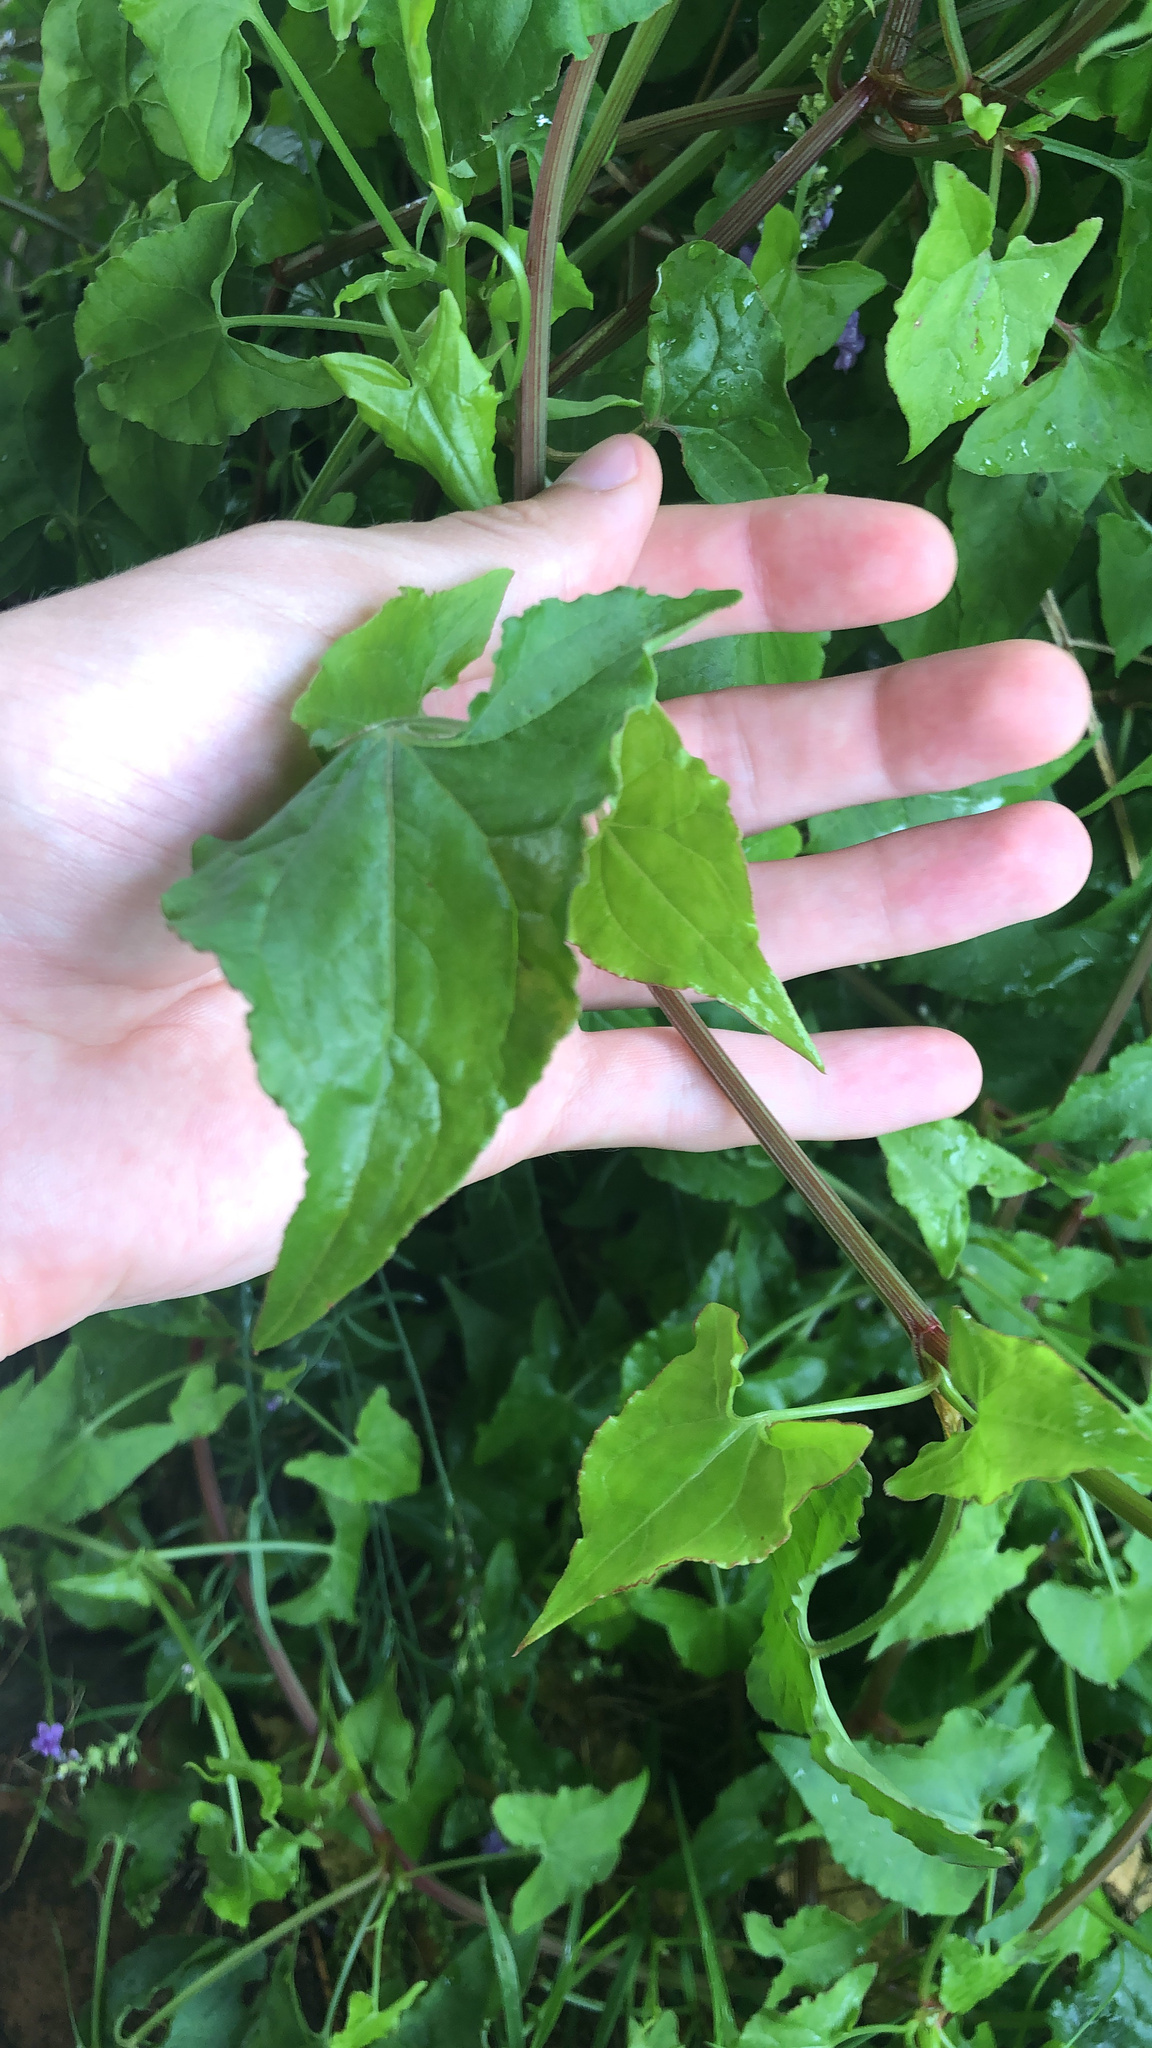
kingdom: Plantae
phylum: Tracheophyta
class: Magnoliopsida
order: Caryophyllales
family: Polygonaceae
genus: Rumex
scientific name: Rumex sagittatus
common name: Climbing dock
